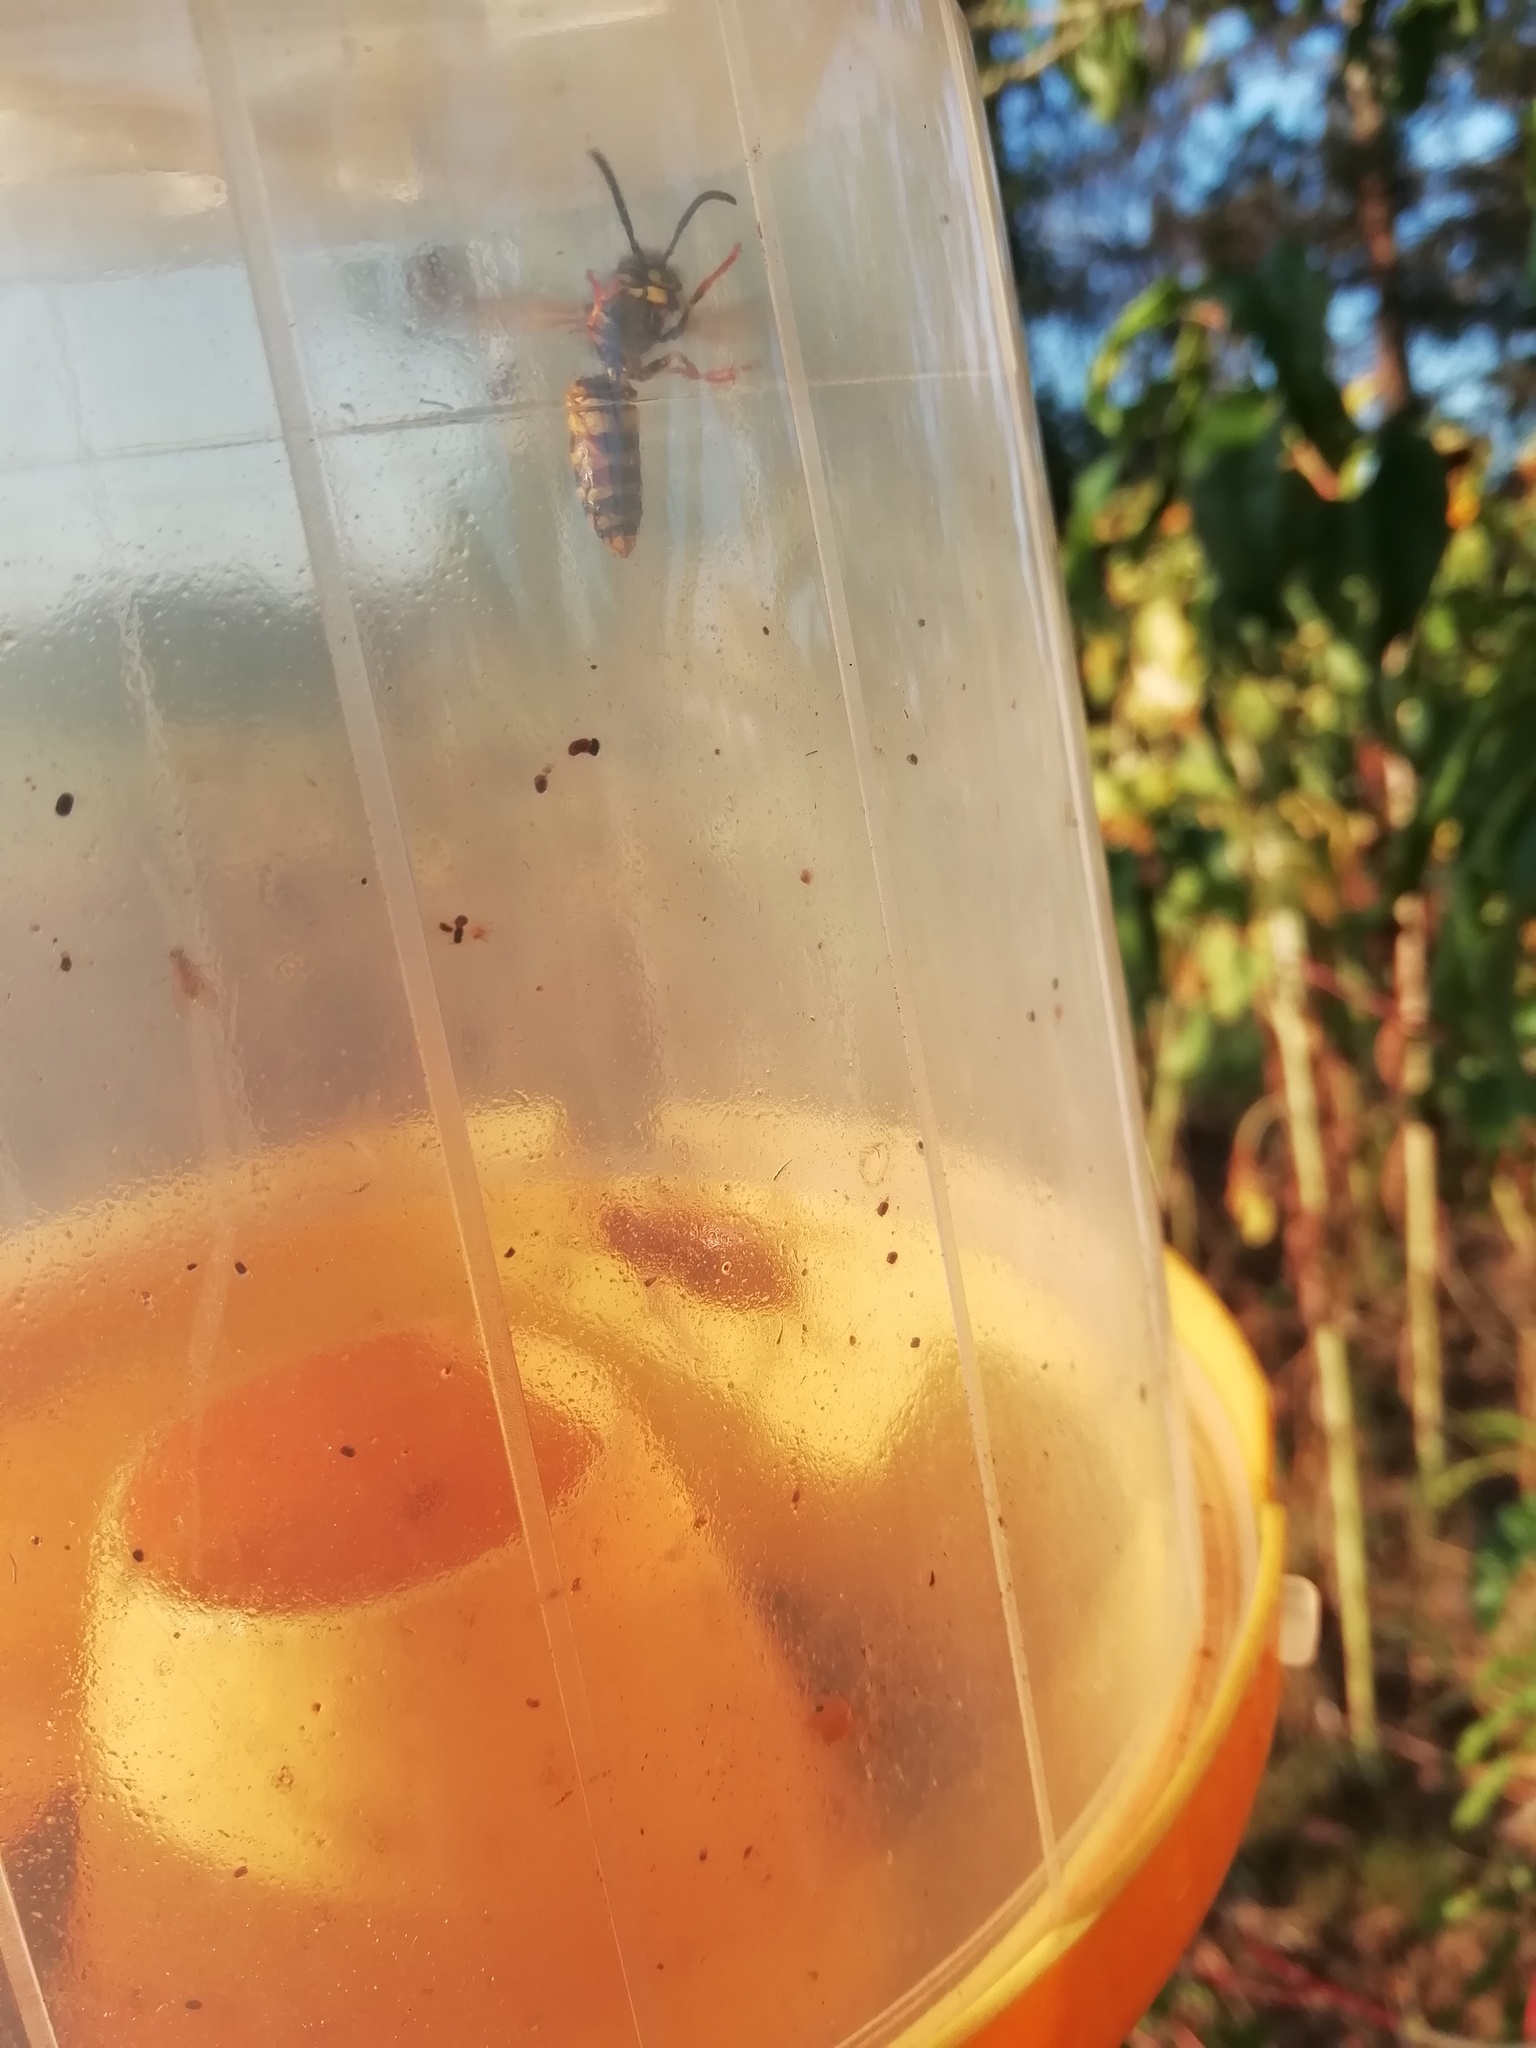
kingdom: Animalia
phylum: Arthropoda
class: Insecta
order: Hymenoptera
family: Vespidae
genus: Vespa
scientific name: Vespa crabro
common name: Hornet
